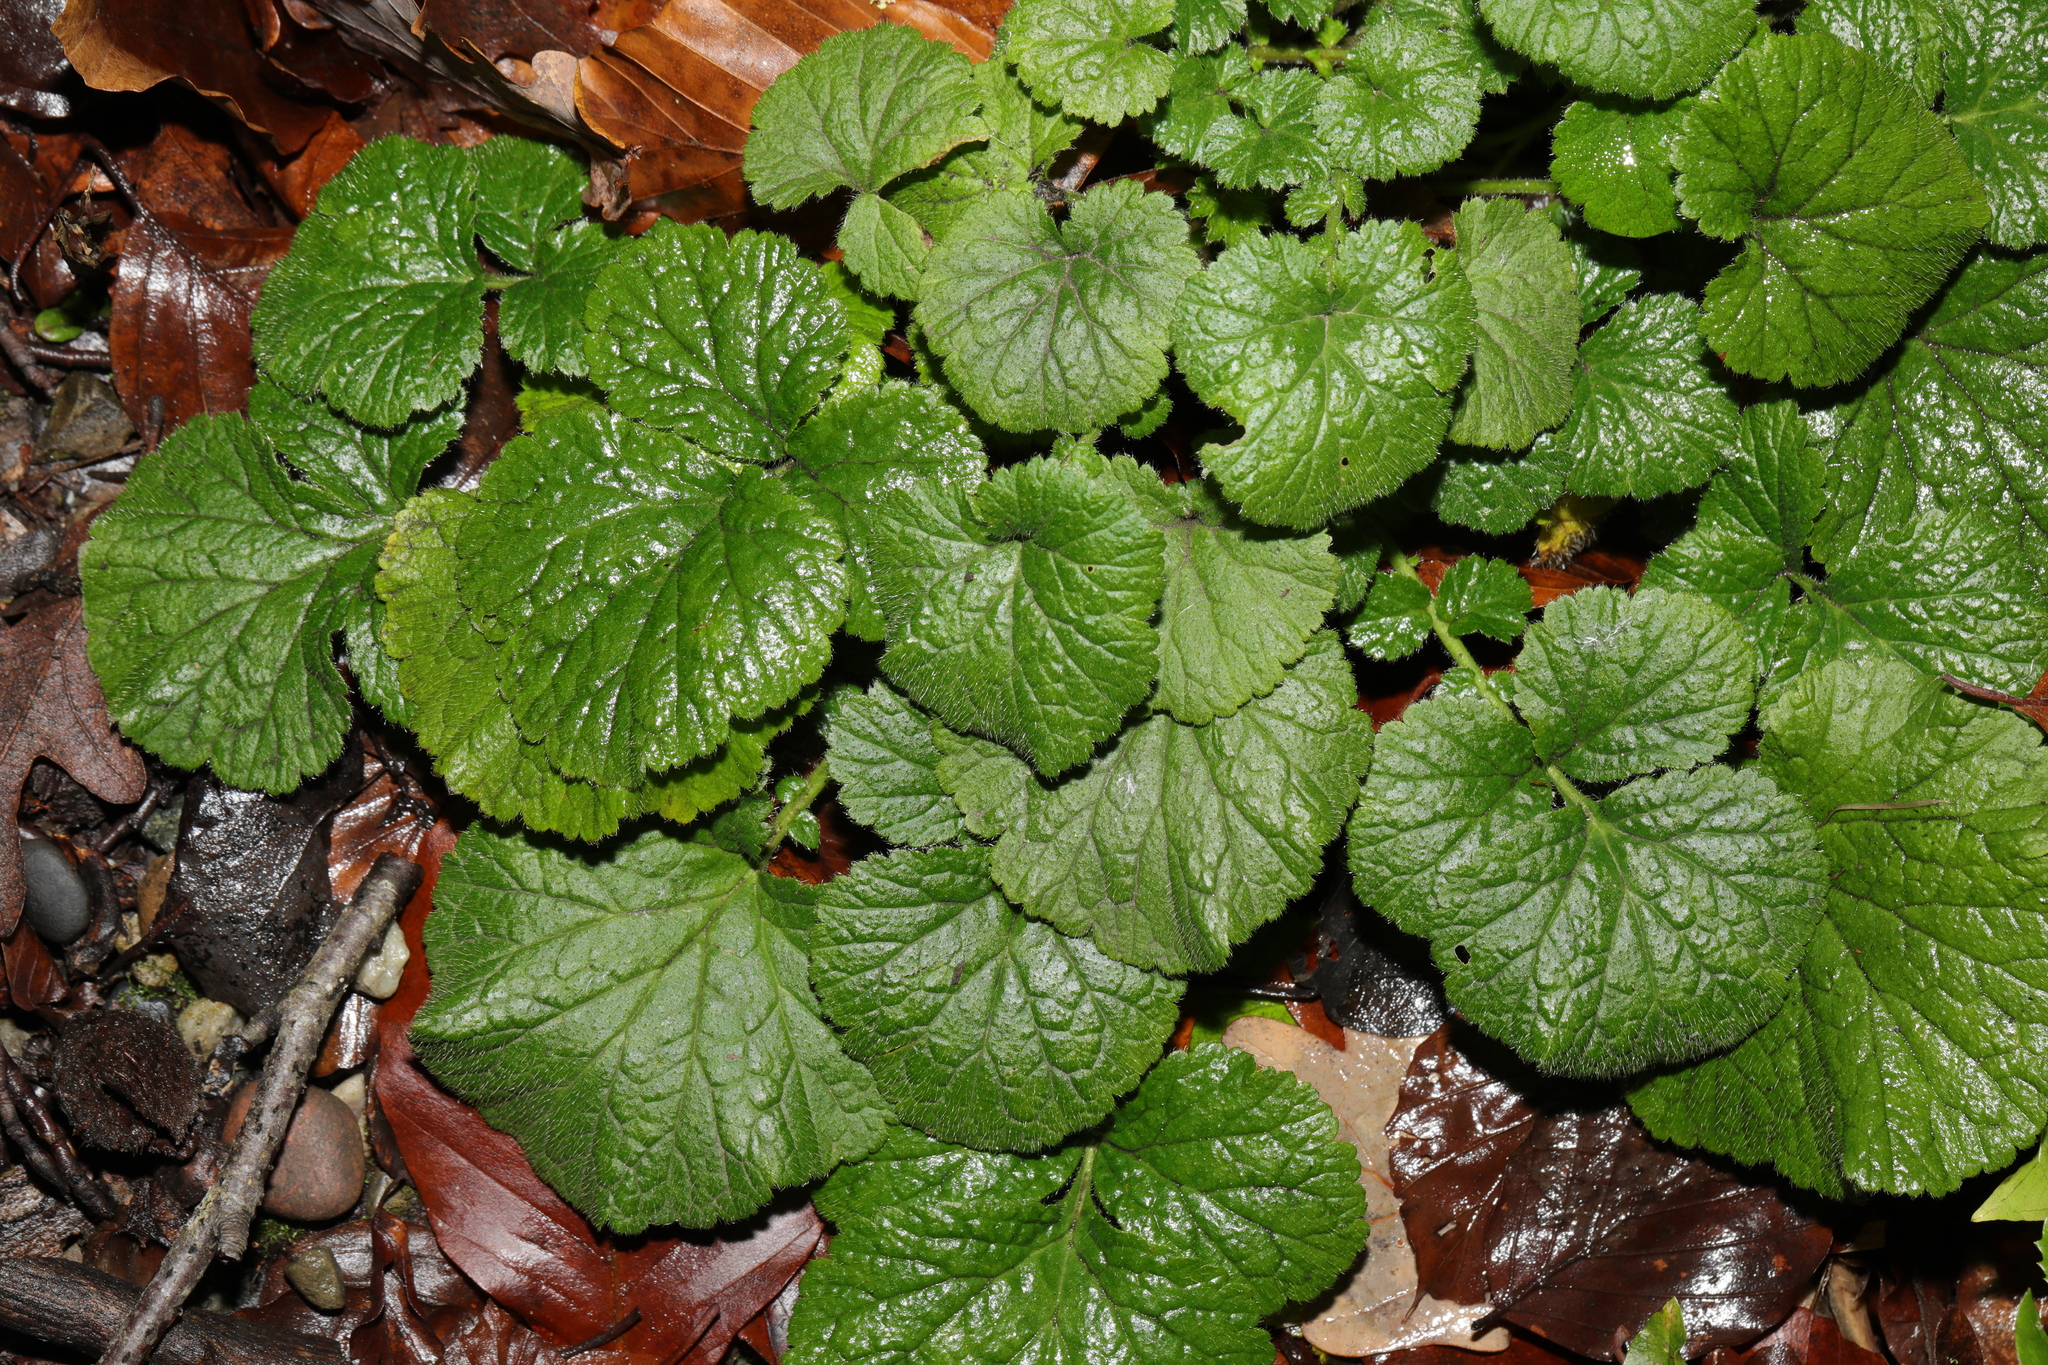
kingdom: Plantae
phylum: Tracheophyta
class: Magnoliopsida
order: Rosales
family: Rosaceae
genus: Geum
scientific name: Geum urbanum
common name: Wood avens
